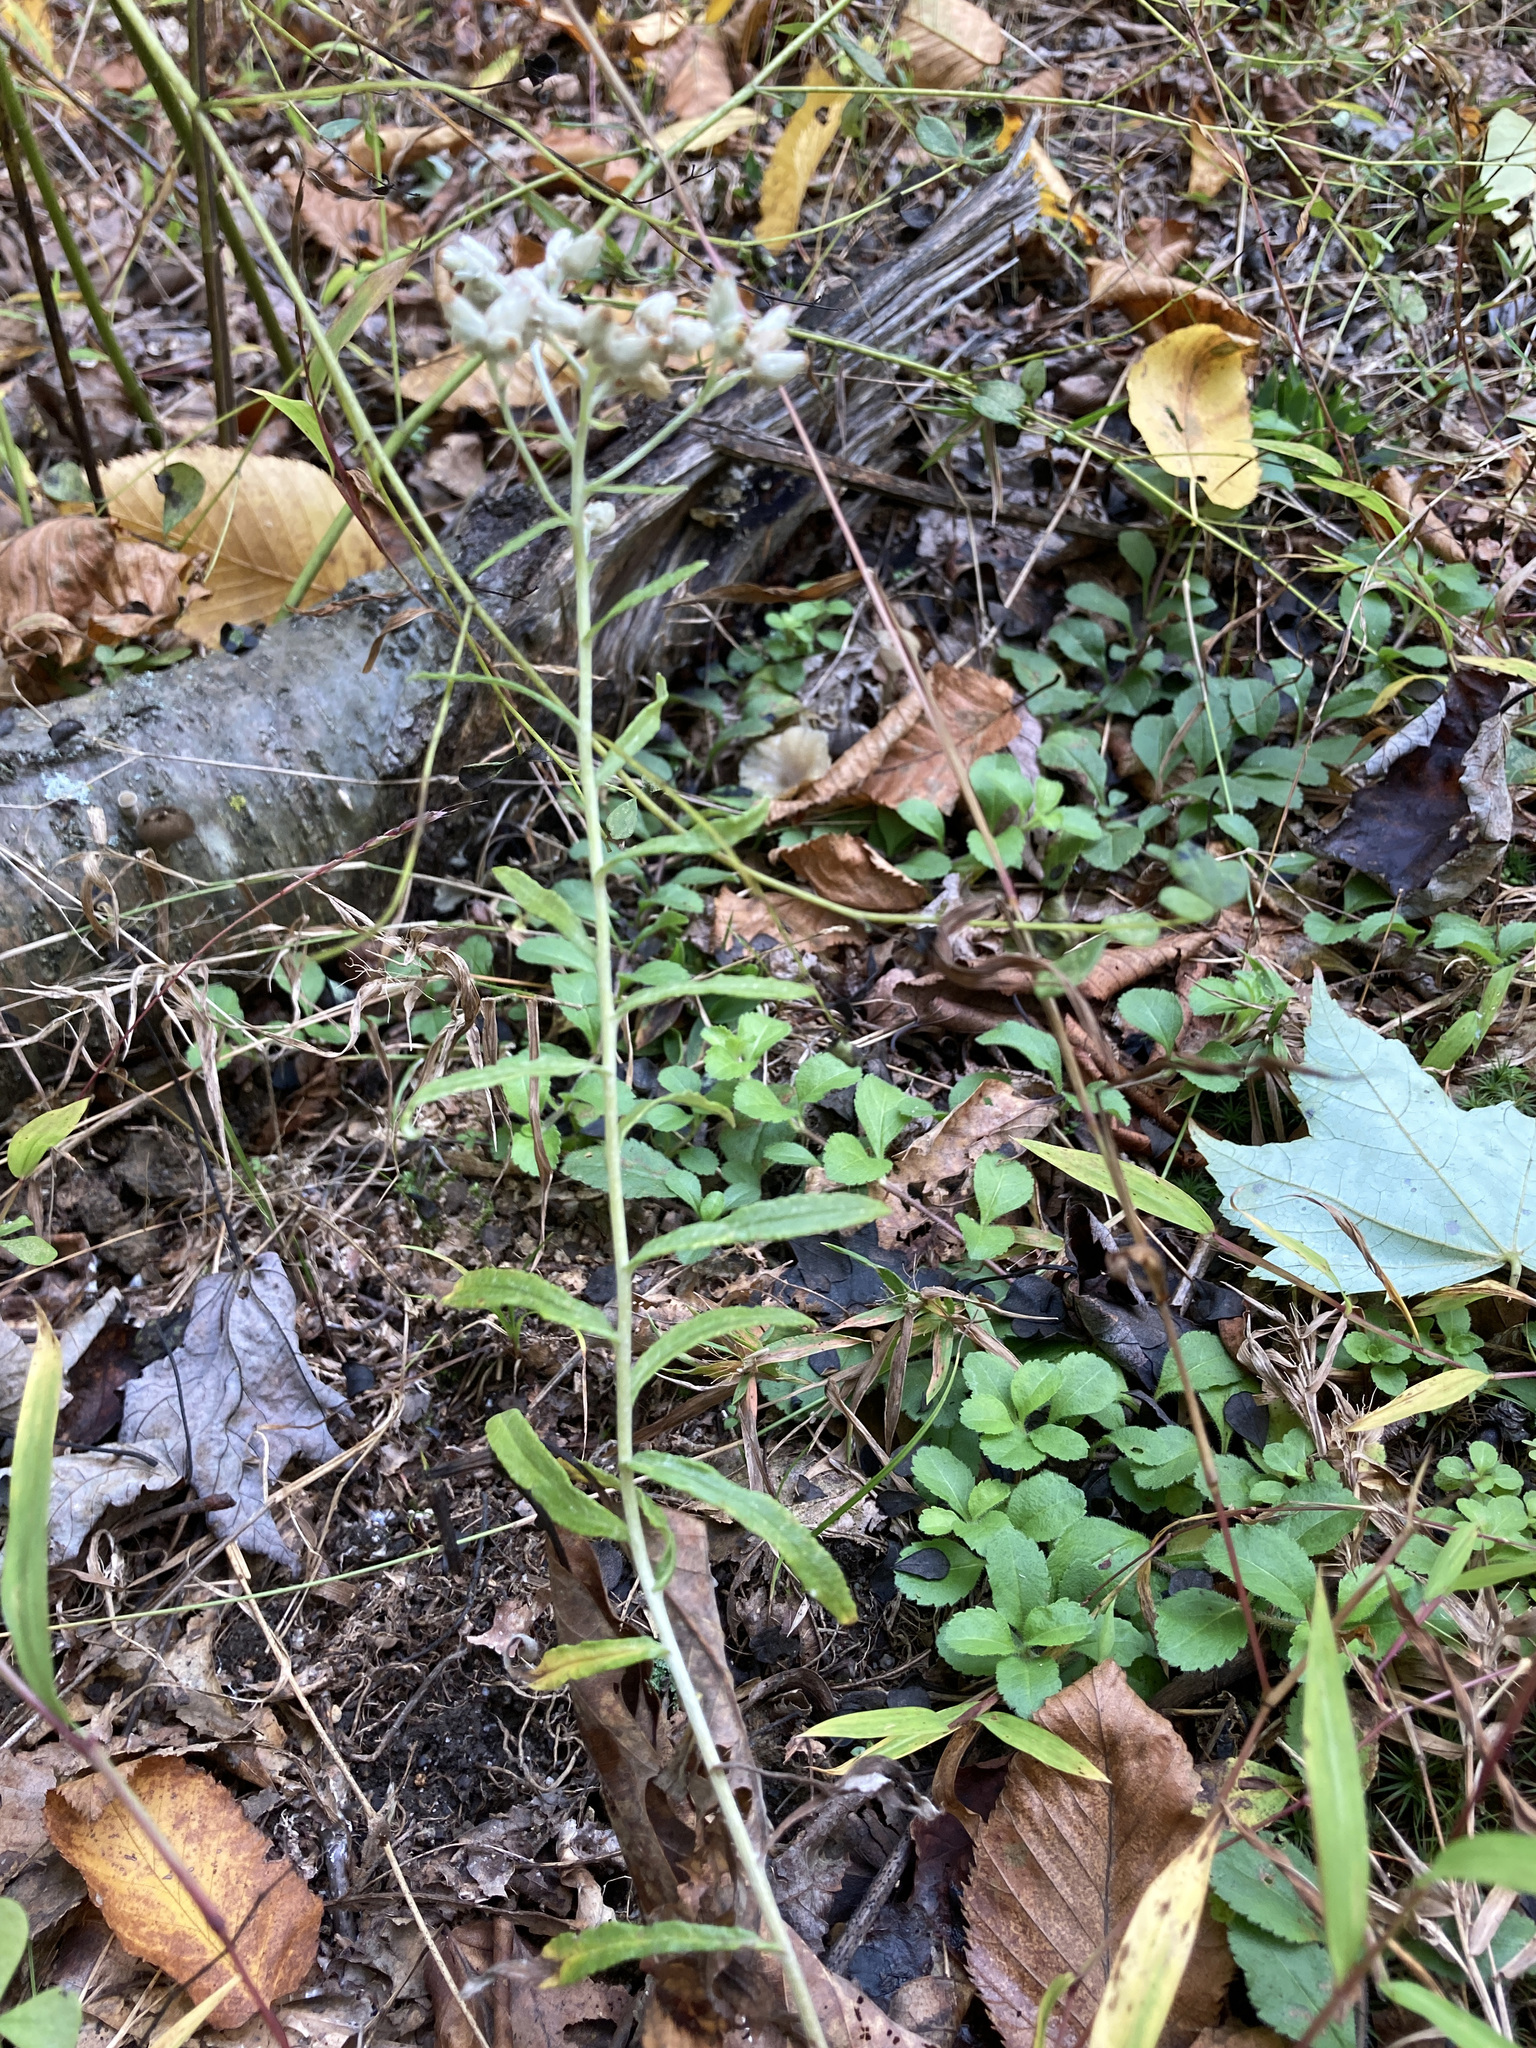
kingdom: Plantae
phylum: Tracheophyta
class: Magnoliopsida
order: Asterales
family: Asteraceae
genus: Pseudognaphalium
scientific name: Pseudognaphalium obtusifolium
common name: Eastern rabbit-tobacco
